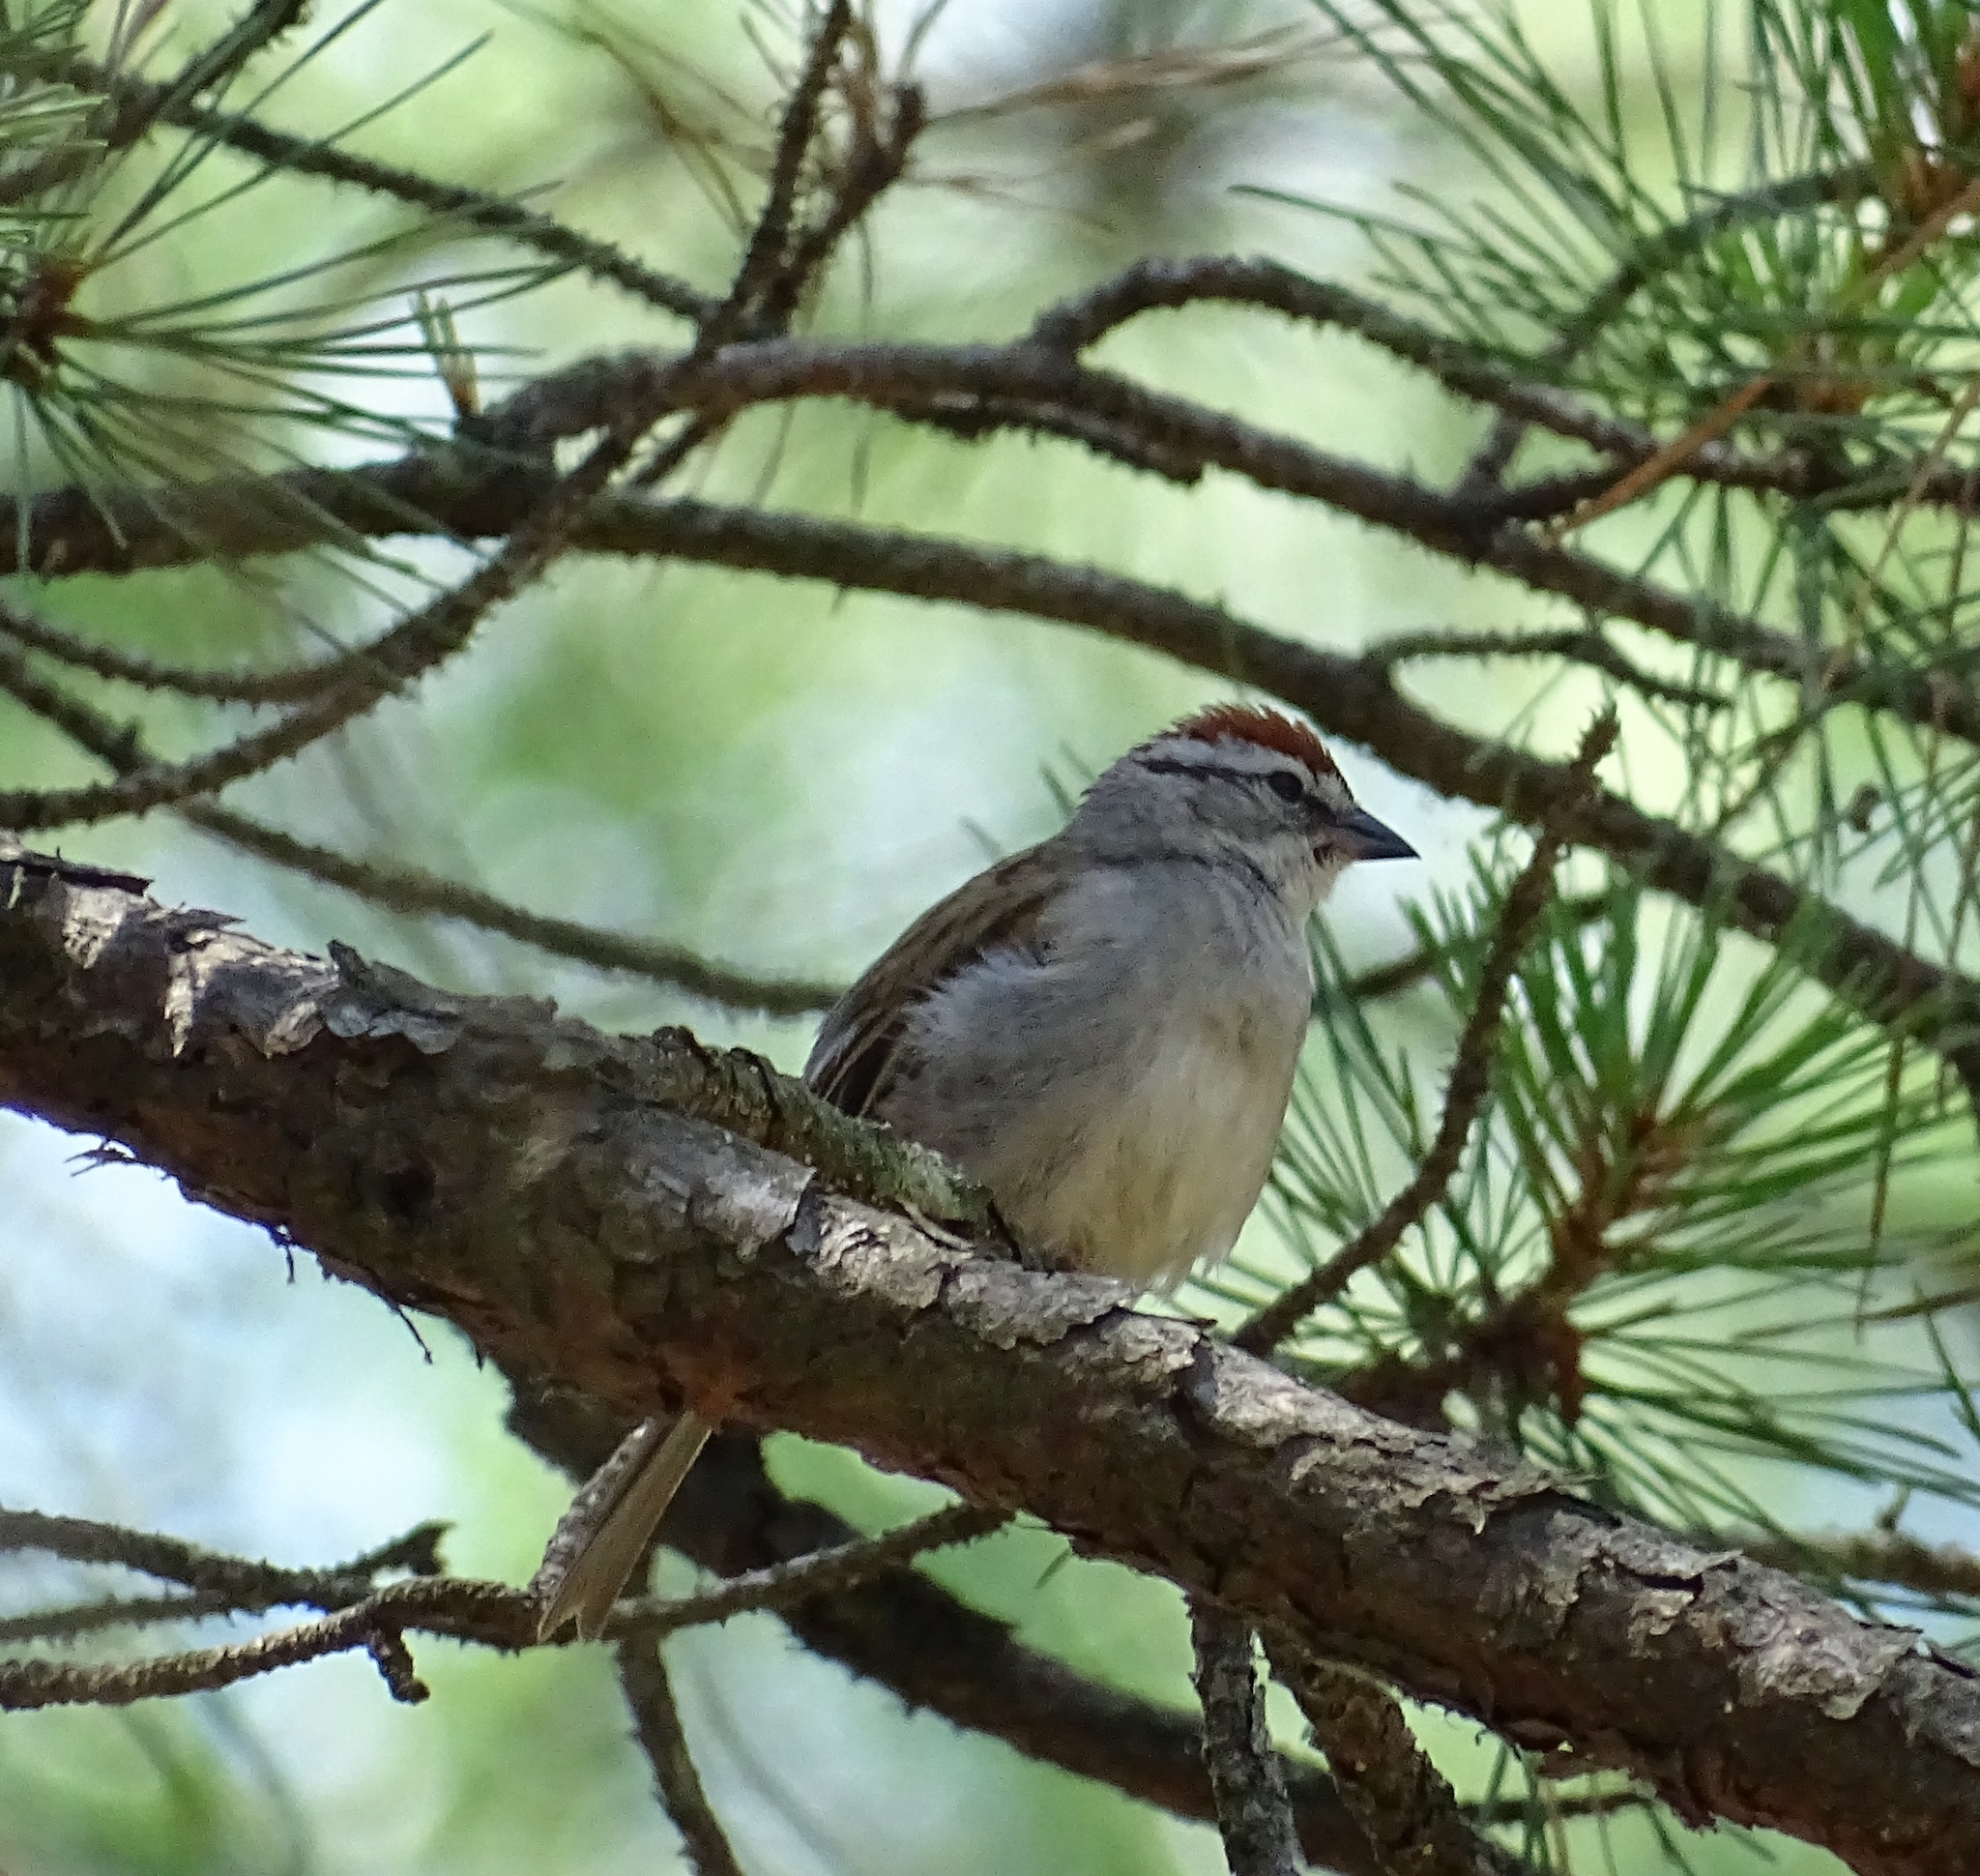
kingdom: Animalia
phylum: Chordata
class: Aves
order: Passeriformes
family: Passerellidae
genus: Spizella
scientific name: Spizella passerina
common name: Chipping sparrow
